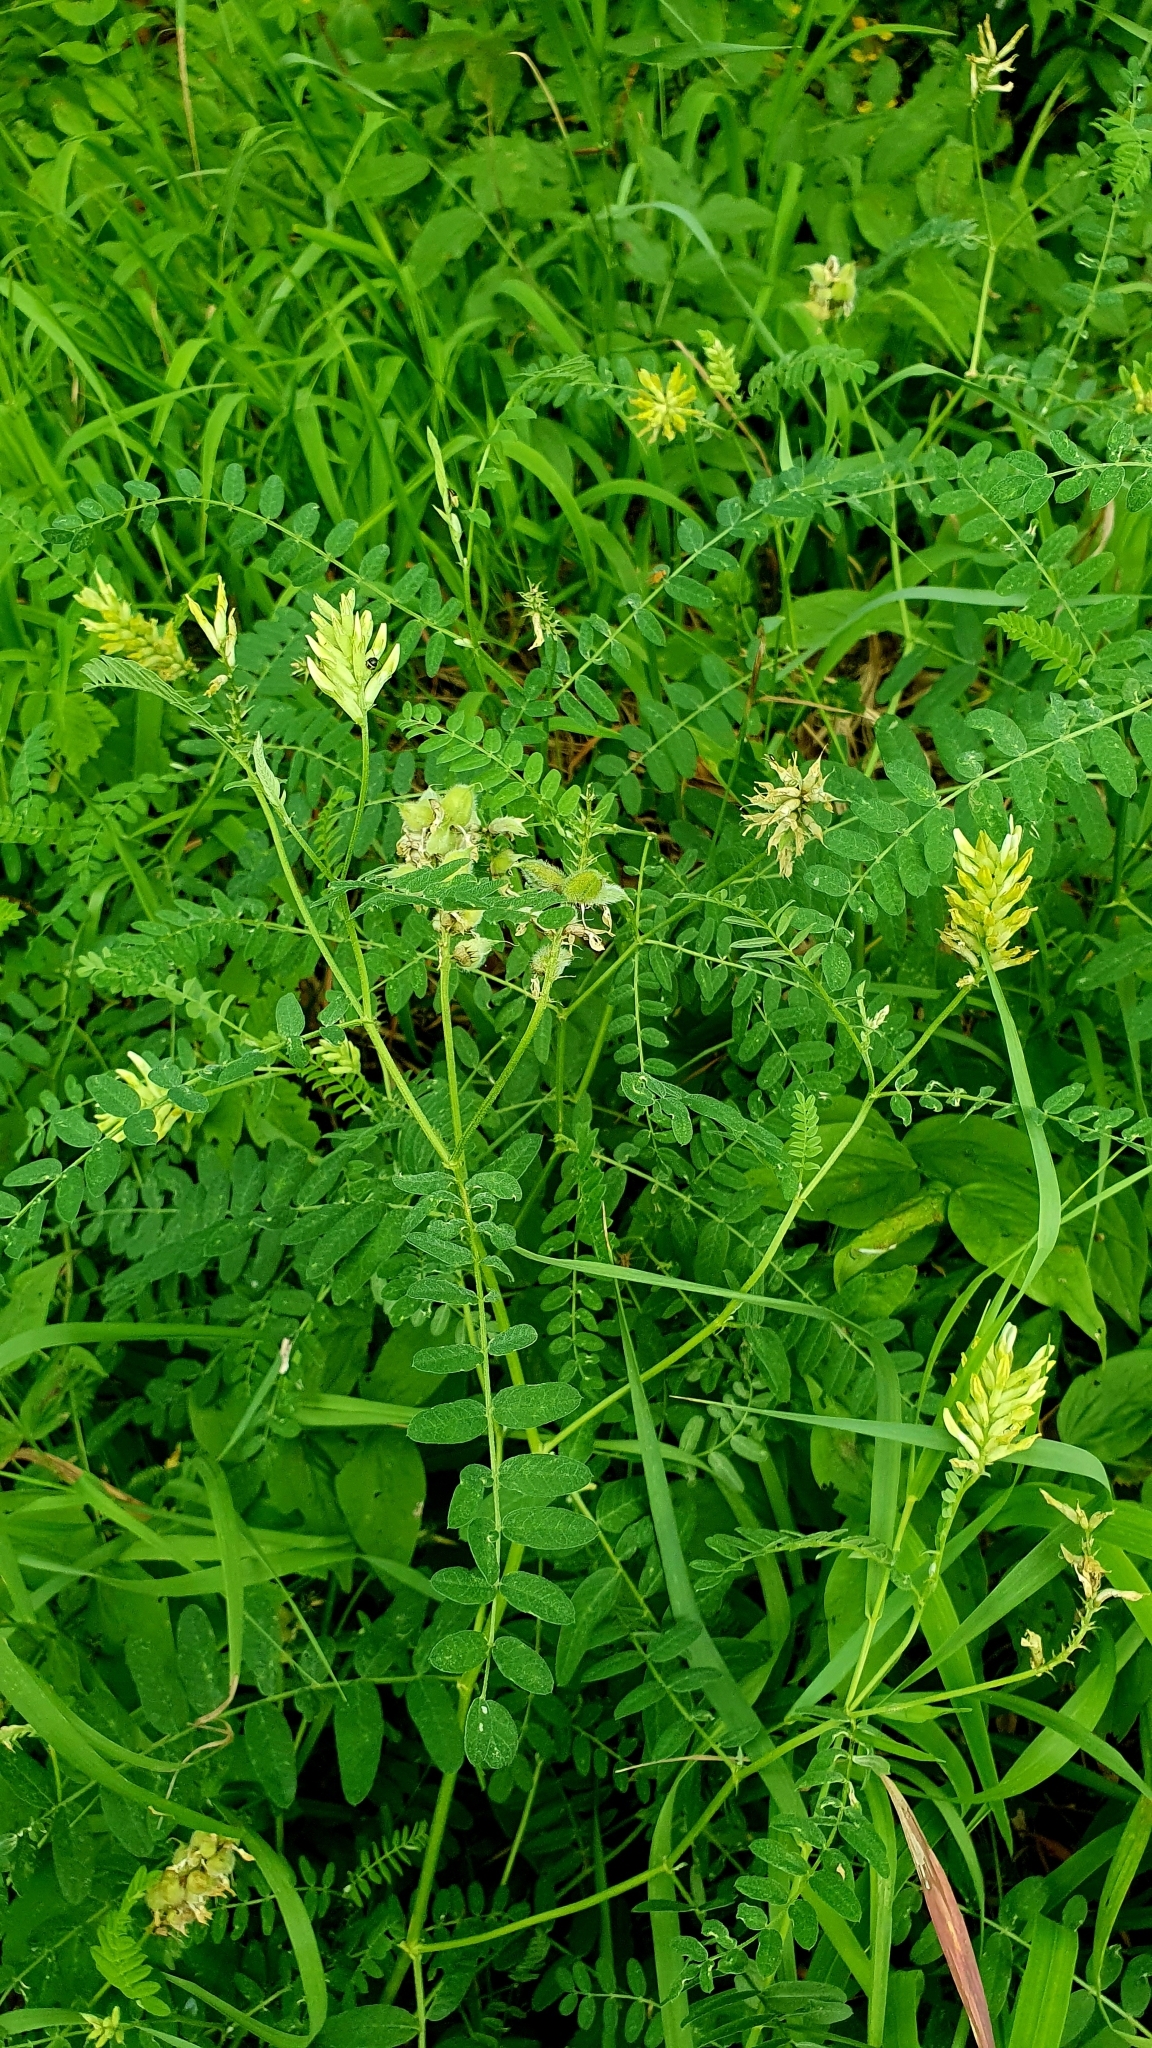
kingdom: Plantae
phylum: Tracheophyta
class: Magnoliopsida
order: Fabales
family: Fabaceae
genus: Astragalus
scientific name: Astragalus cicer
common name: Chick-pea milk-vetch
